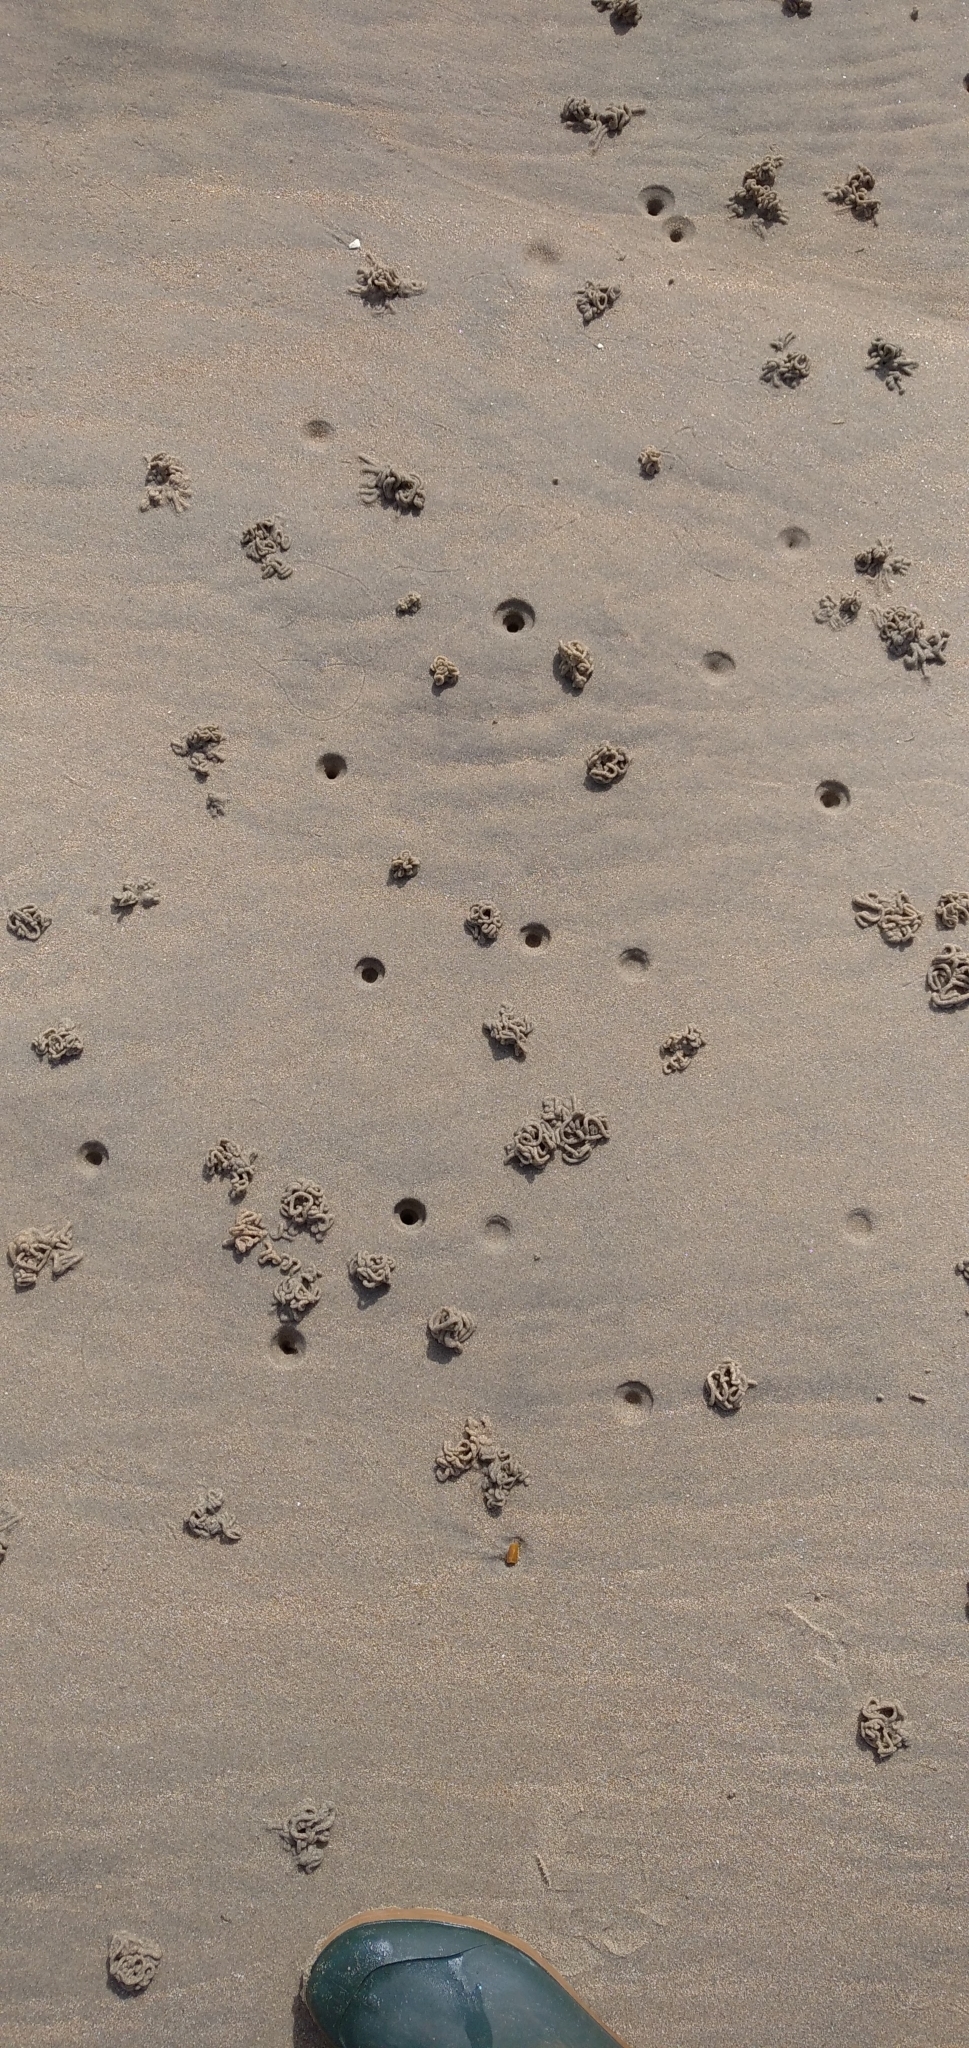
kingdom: Animalia
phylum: Annelida
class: Polychaeta
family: Arenicolidae
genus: Arenicola
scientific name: Arenicola marina
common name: Blow lugworm
